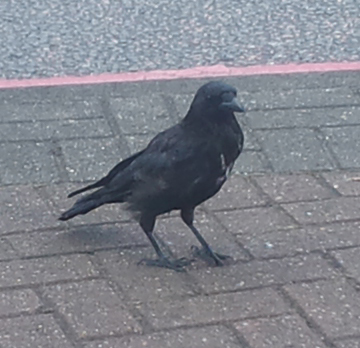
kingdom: Animalia
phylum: Chordata
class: Aves
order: Passeriformes
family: Corvidae
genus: Corvus
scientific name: Corvus corone
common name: Carrion crow
